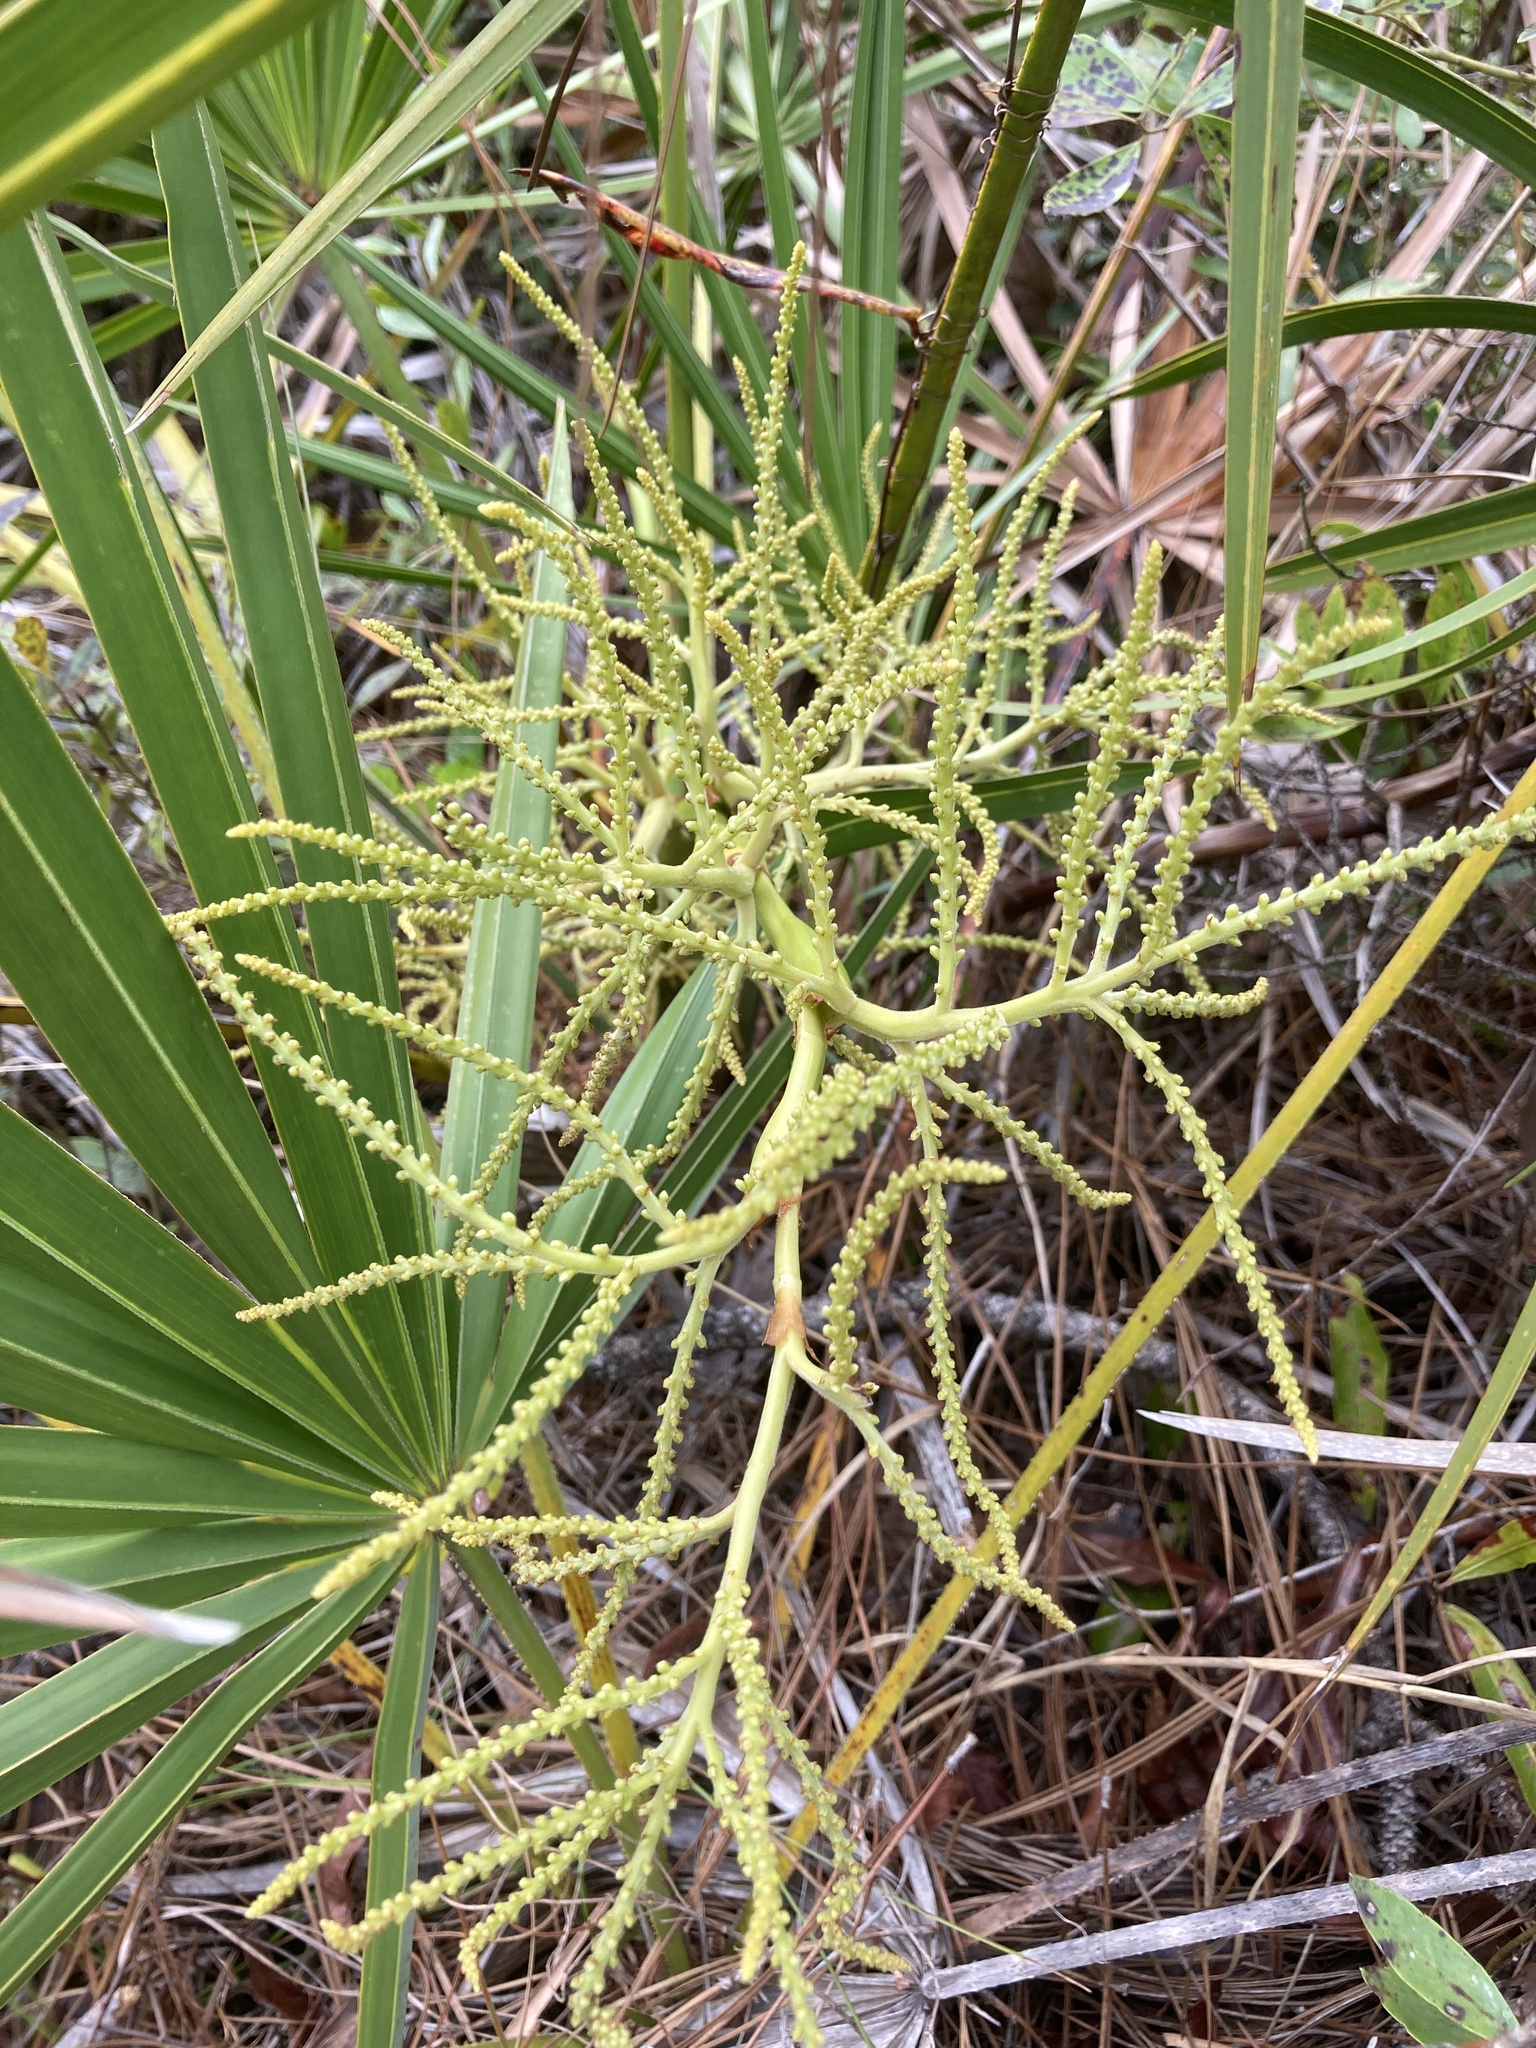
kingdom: Plantae
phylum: Tracheophyta
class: Liliopsida
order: Arecales
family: Arecaceae
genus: Serenoa
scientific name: Serenoa repens
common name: Saw-palmetto
